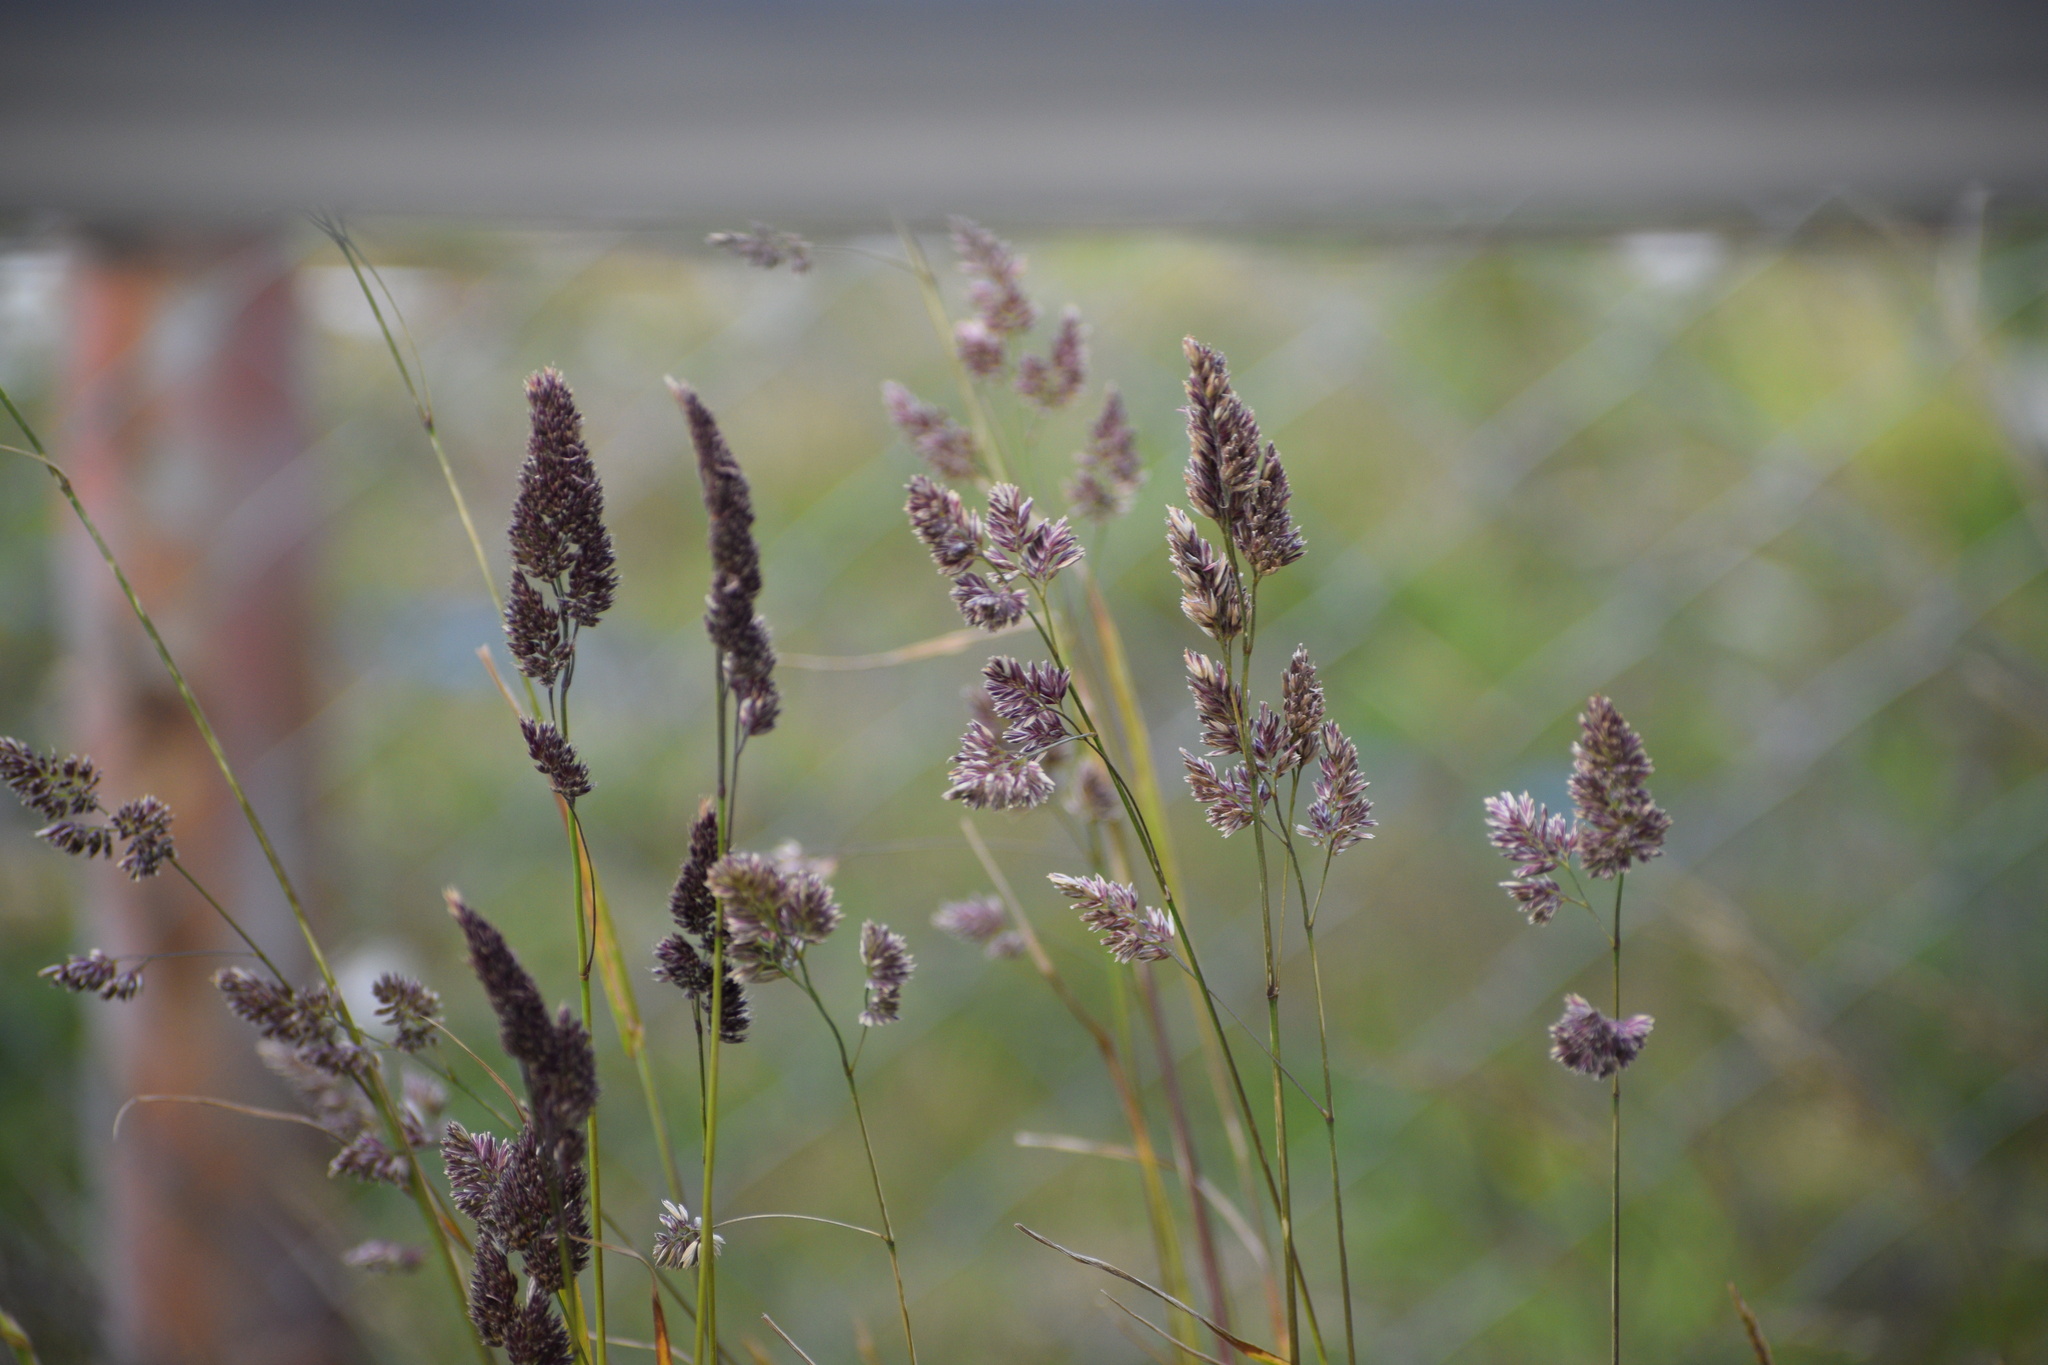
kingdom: Plantae
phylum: Tracheophyta
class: Liliopsida
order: Poales
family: Poaceae
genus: Dactylis
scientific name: Dactylis glomerata
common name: Orchardgrass
